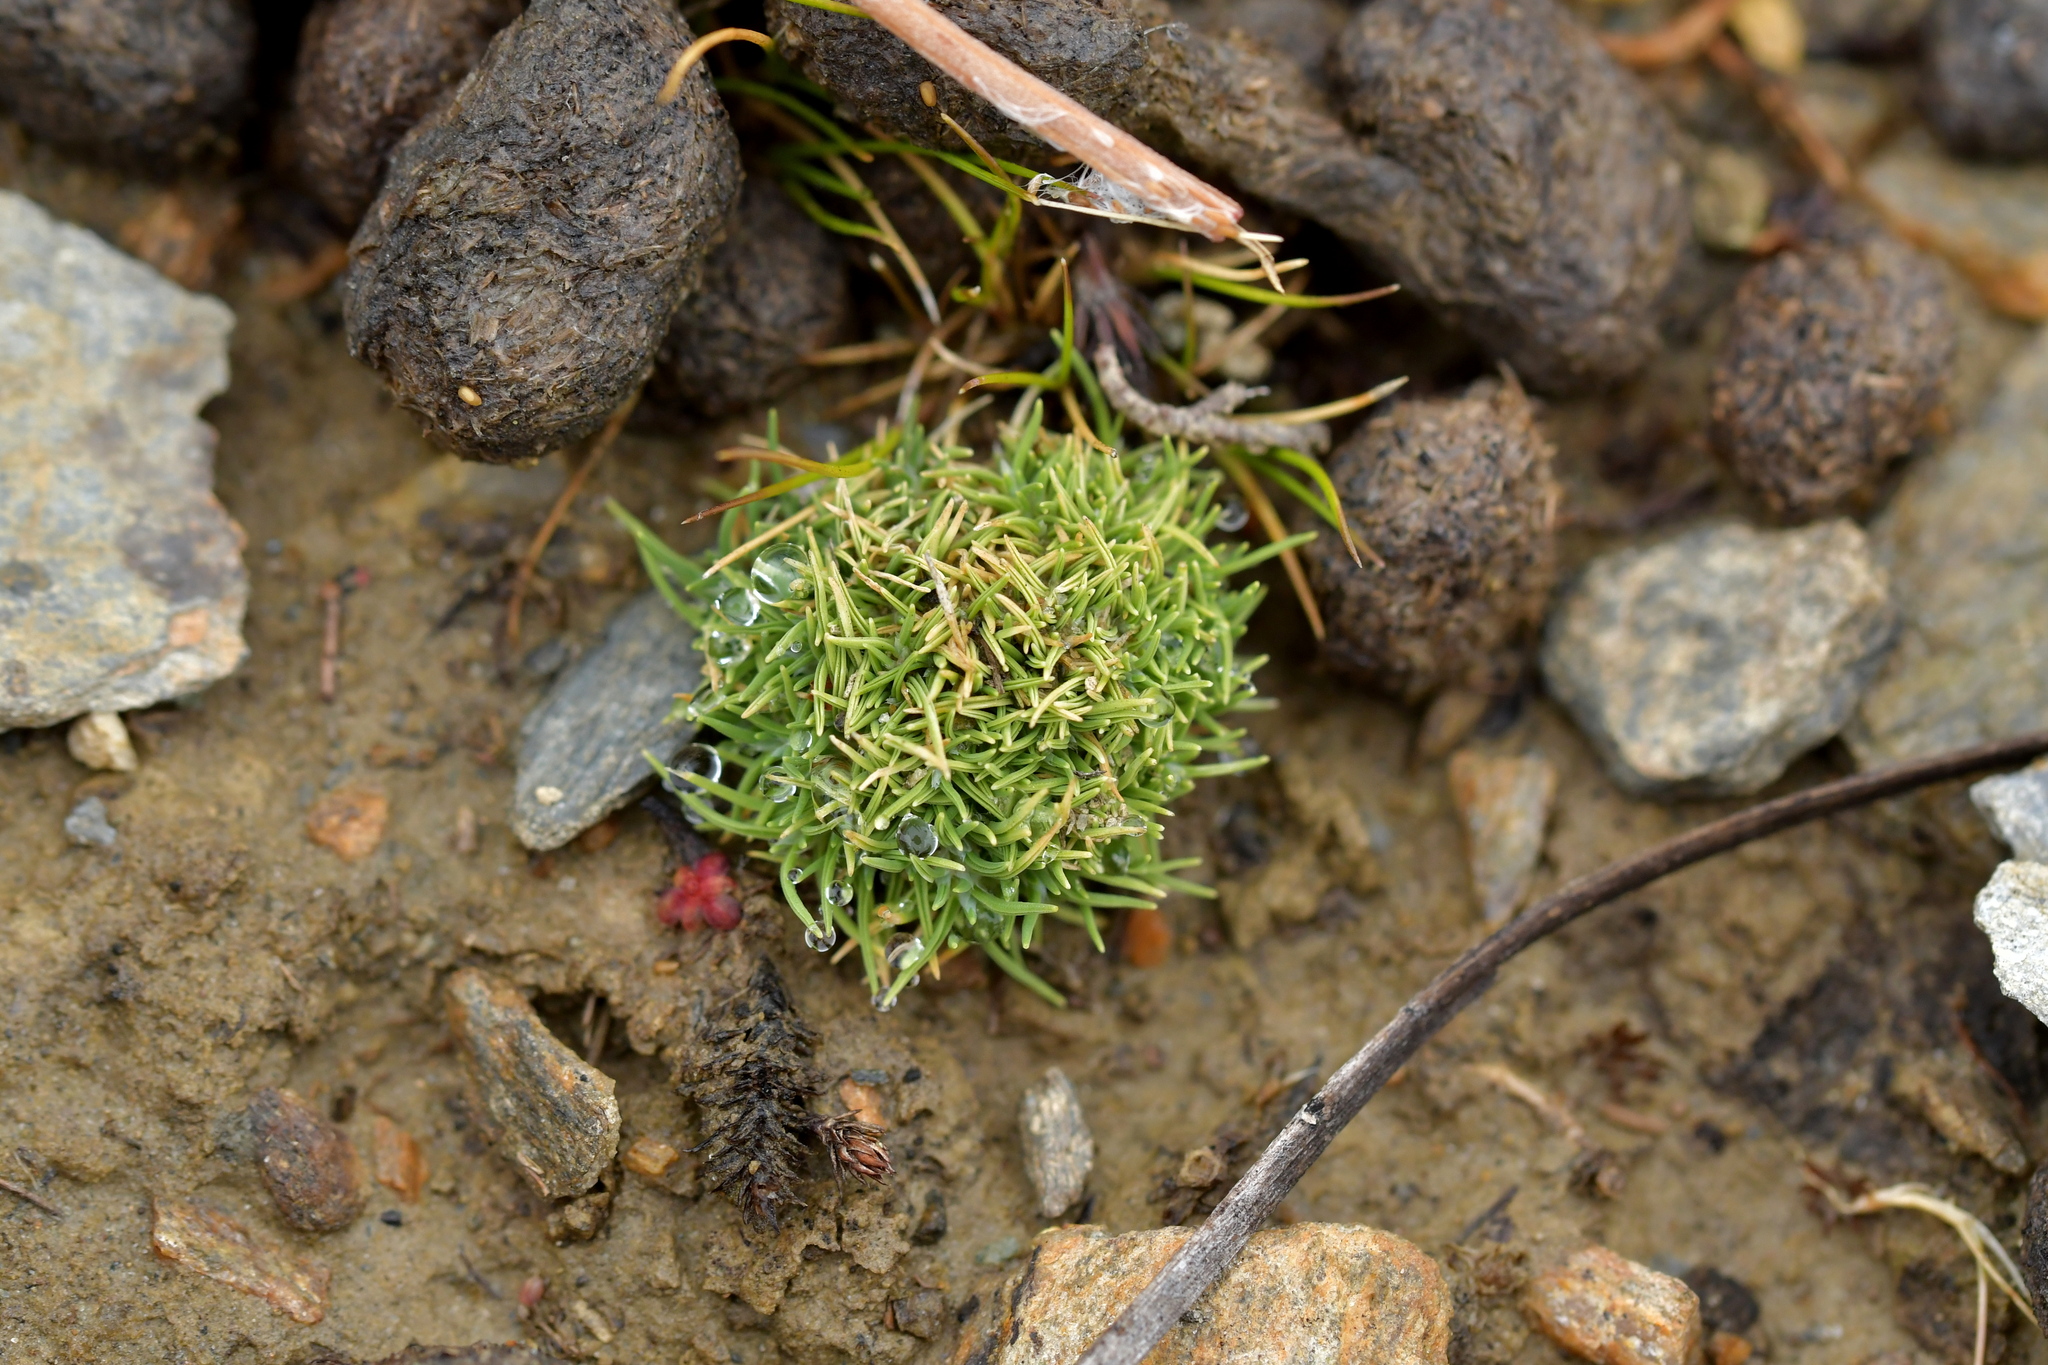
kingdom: Plantae
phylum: Tracheophyta
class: Liliopsida
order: Poales
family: Poaceae
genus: Agrostis
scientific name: Agrostis muscosa
